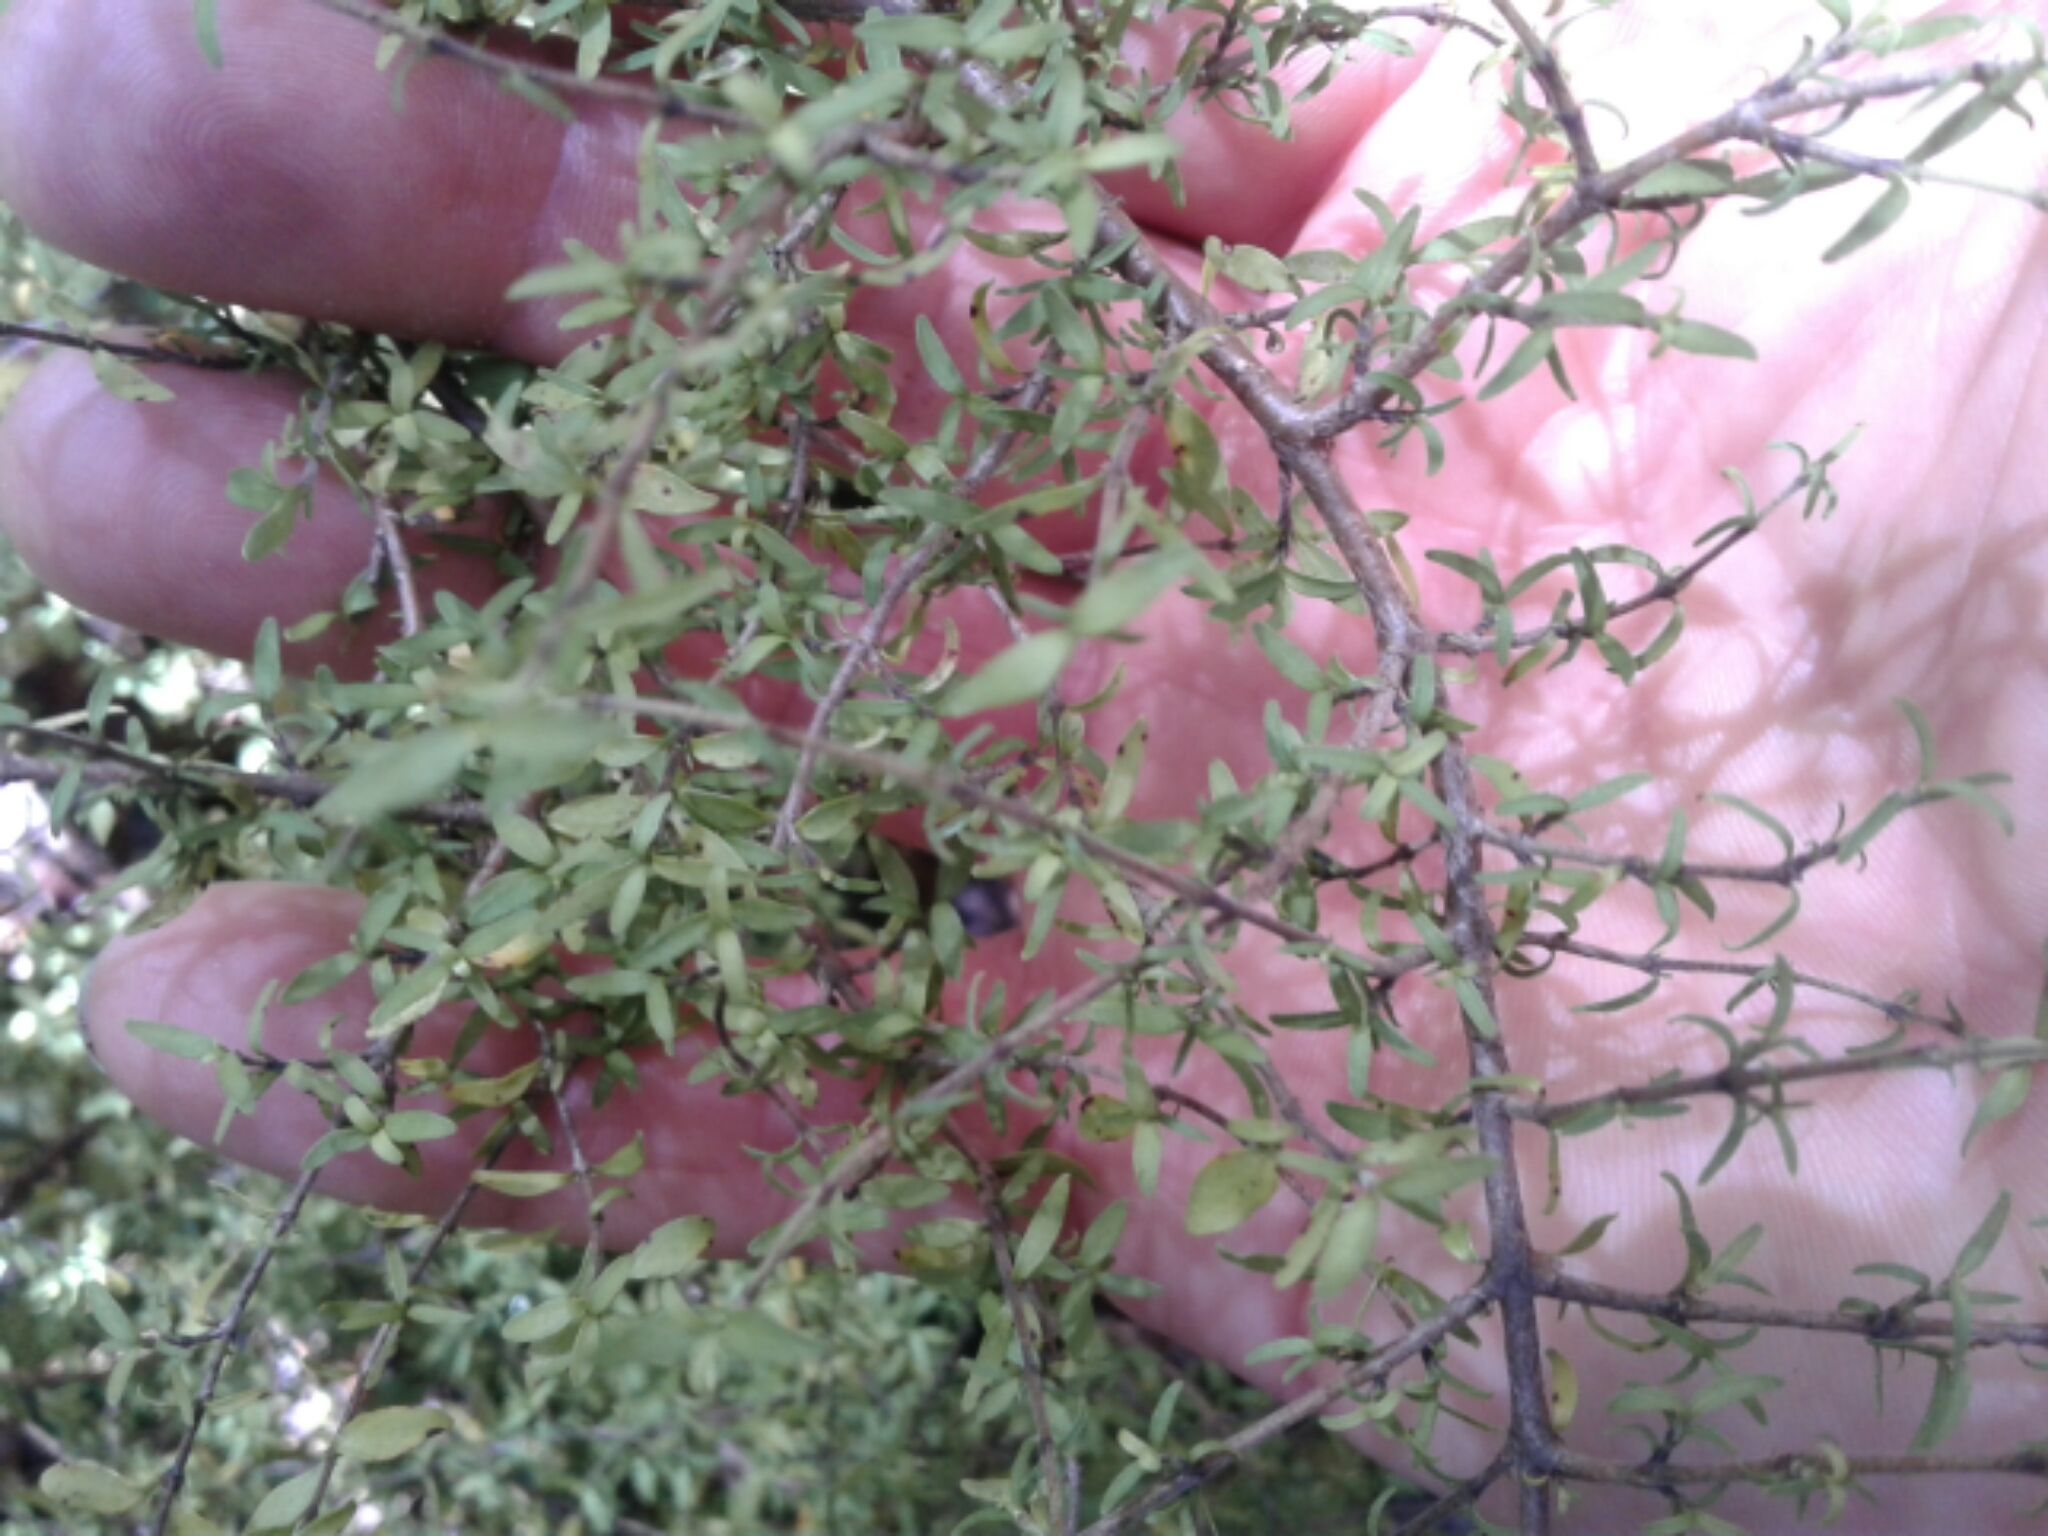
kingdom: Plantae
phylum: Tracheophyta
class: Magnoliopsida
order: Gentianales
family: Rubiaceae
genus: Coprosma
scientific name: Coprosma
